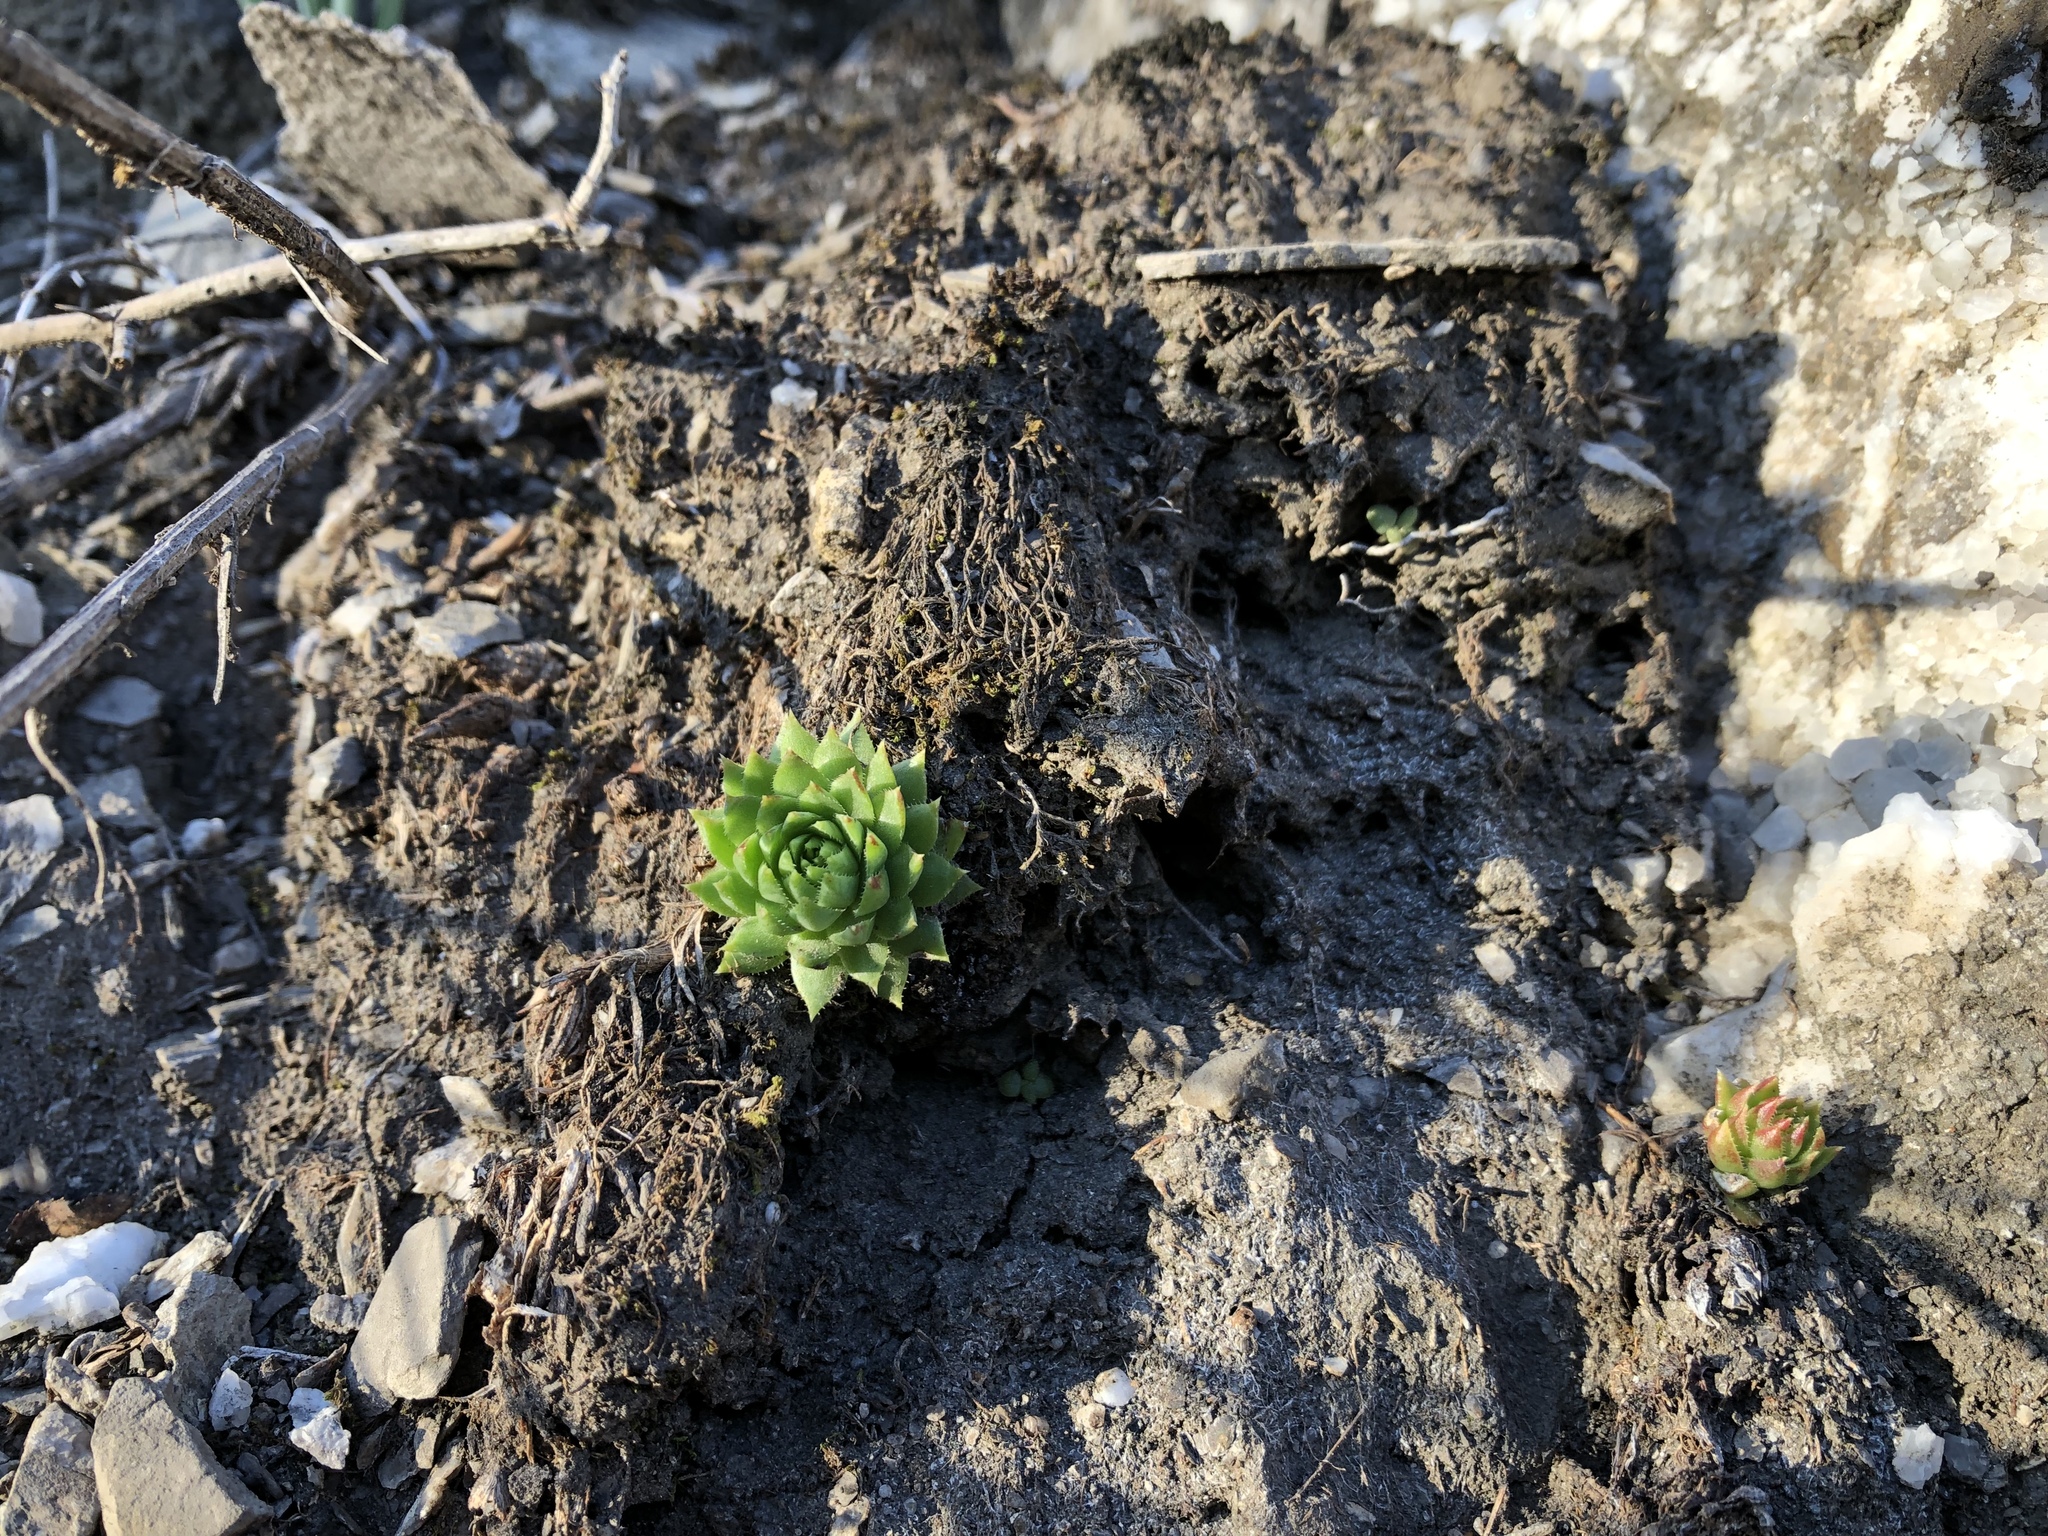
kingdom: Plantae
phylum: Tracheophyta
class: Magnoliopsida
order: Saxifragales
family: Crassulaceae
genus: Sempervivum
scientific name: Sempervivum globiferum
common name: Rolling hen-and-chicks
